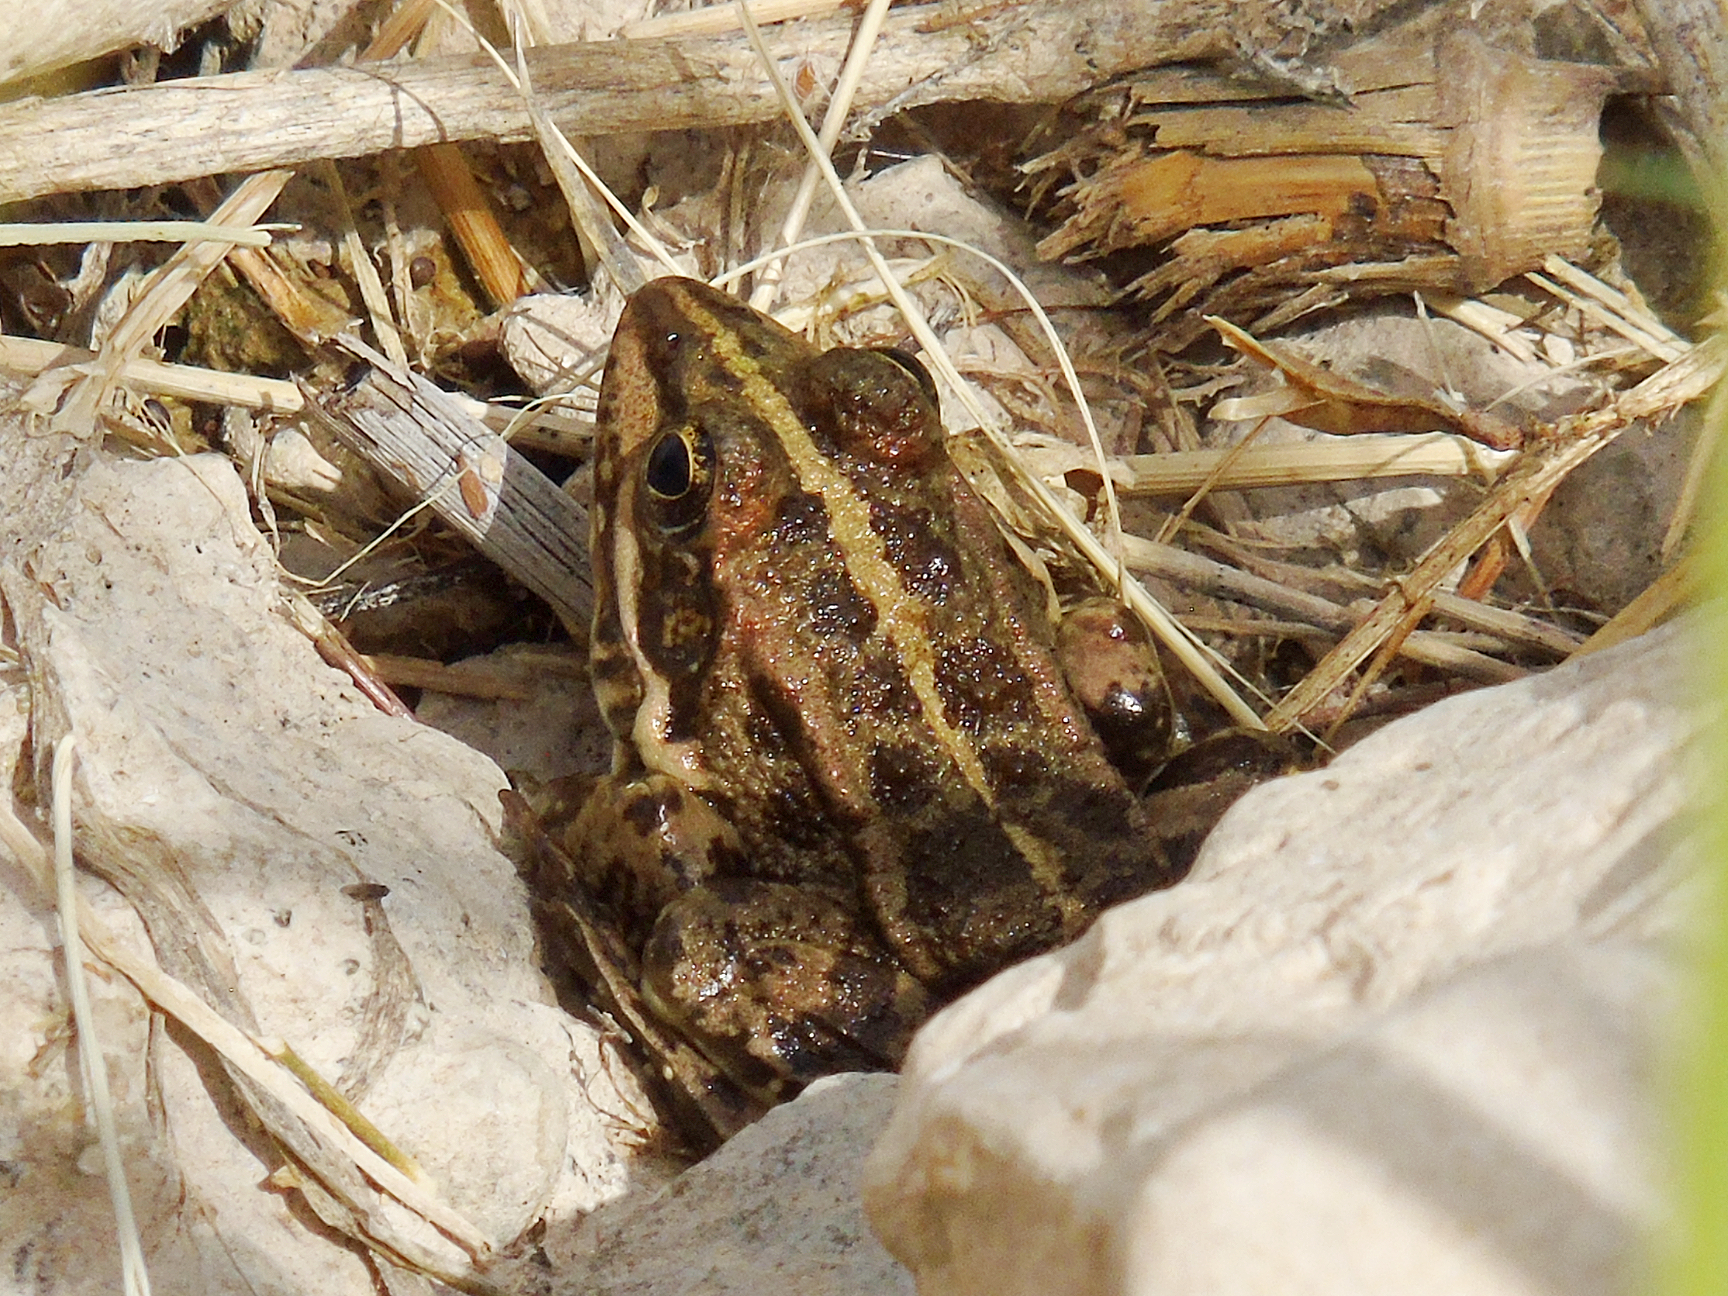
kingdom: Animalia
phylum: Chordata
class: Amphibia
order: Anura
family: Ranidae
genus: Pelophylax
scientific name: Pelophylax ridibundus
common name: Marsh frog
